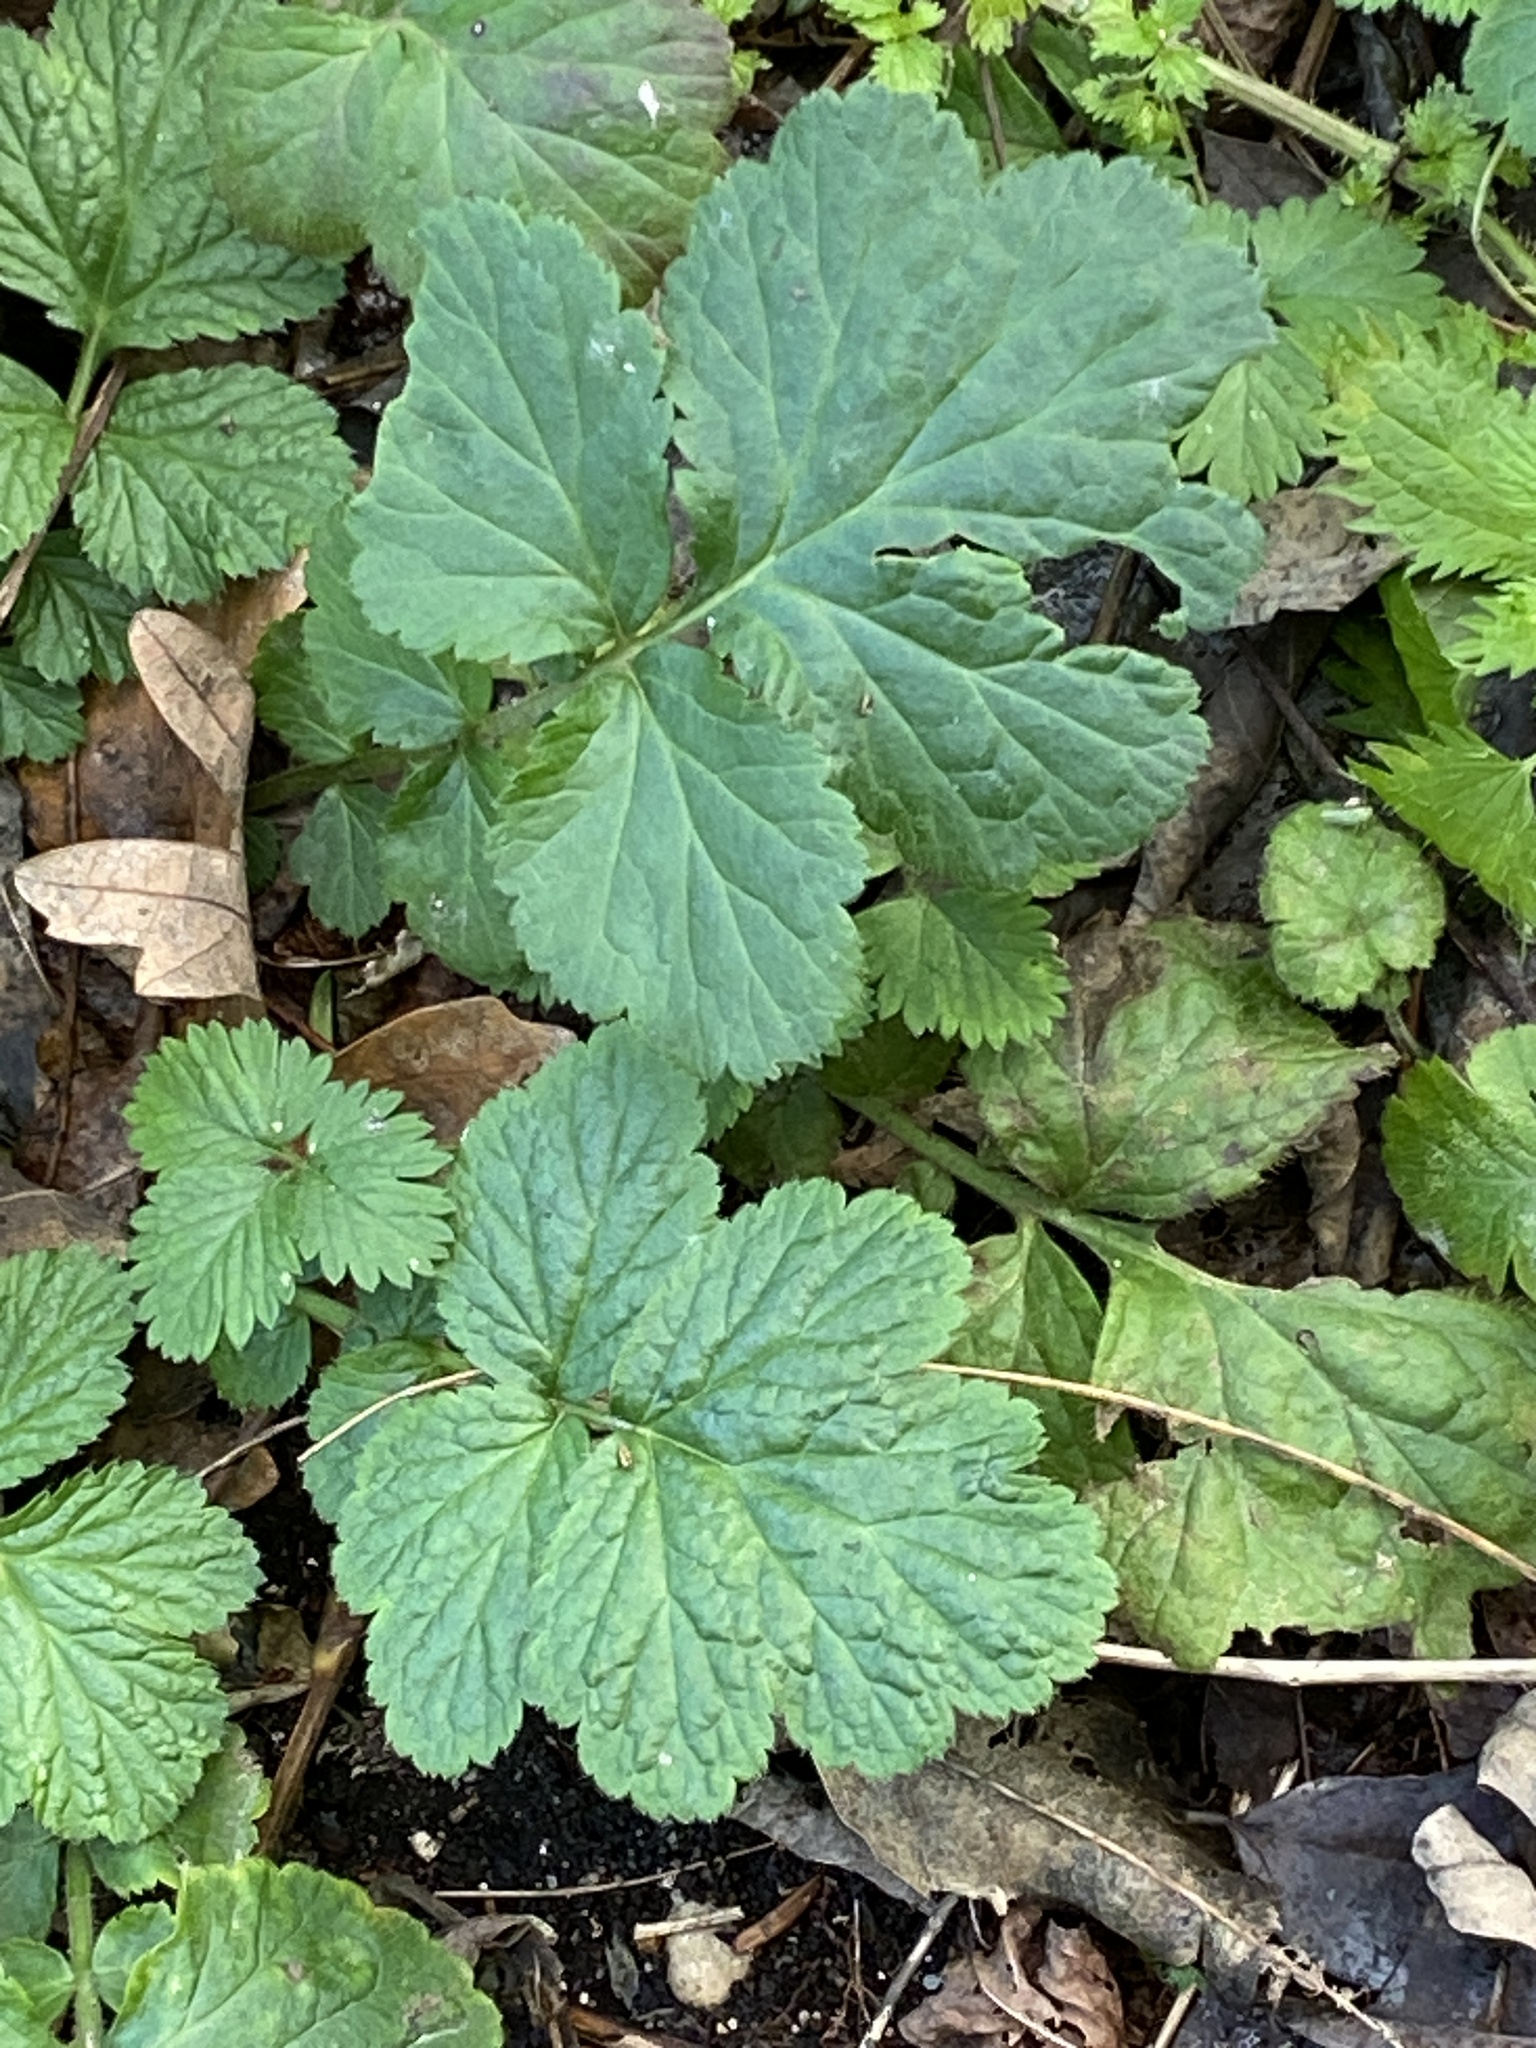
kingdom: Plantae
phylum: Tracheophyta
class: Magnoliopsida
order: Rosales
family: Rosaceae
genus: Geum
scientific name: Geum urbanum
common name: Wood avens
